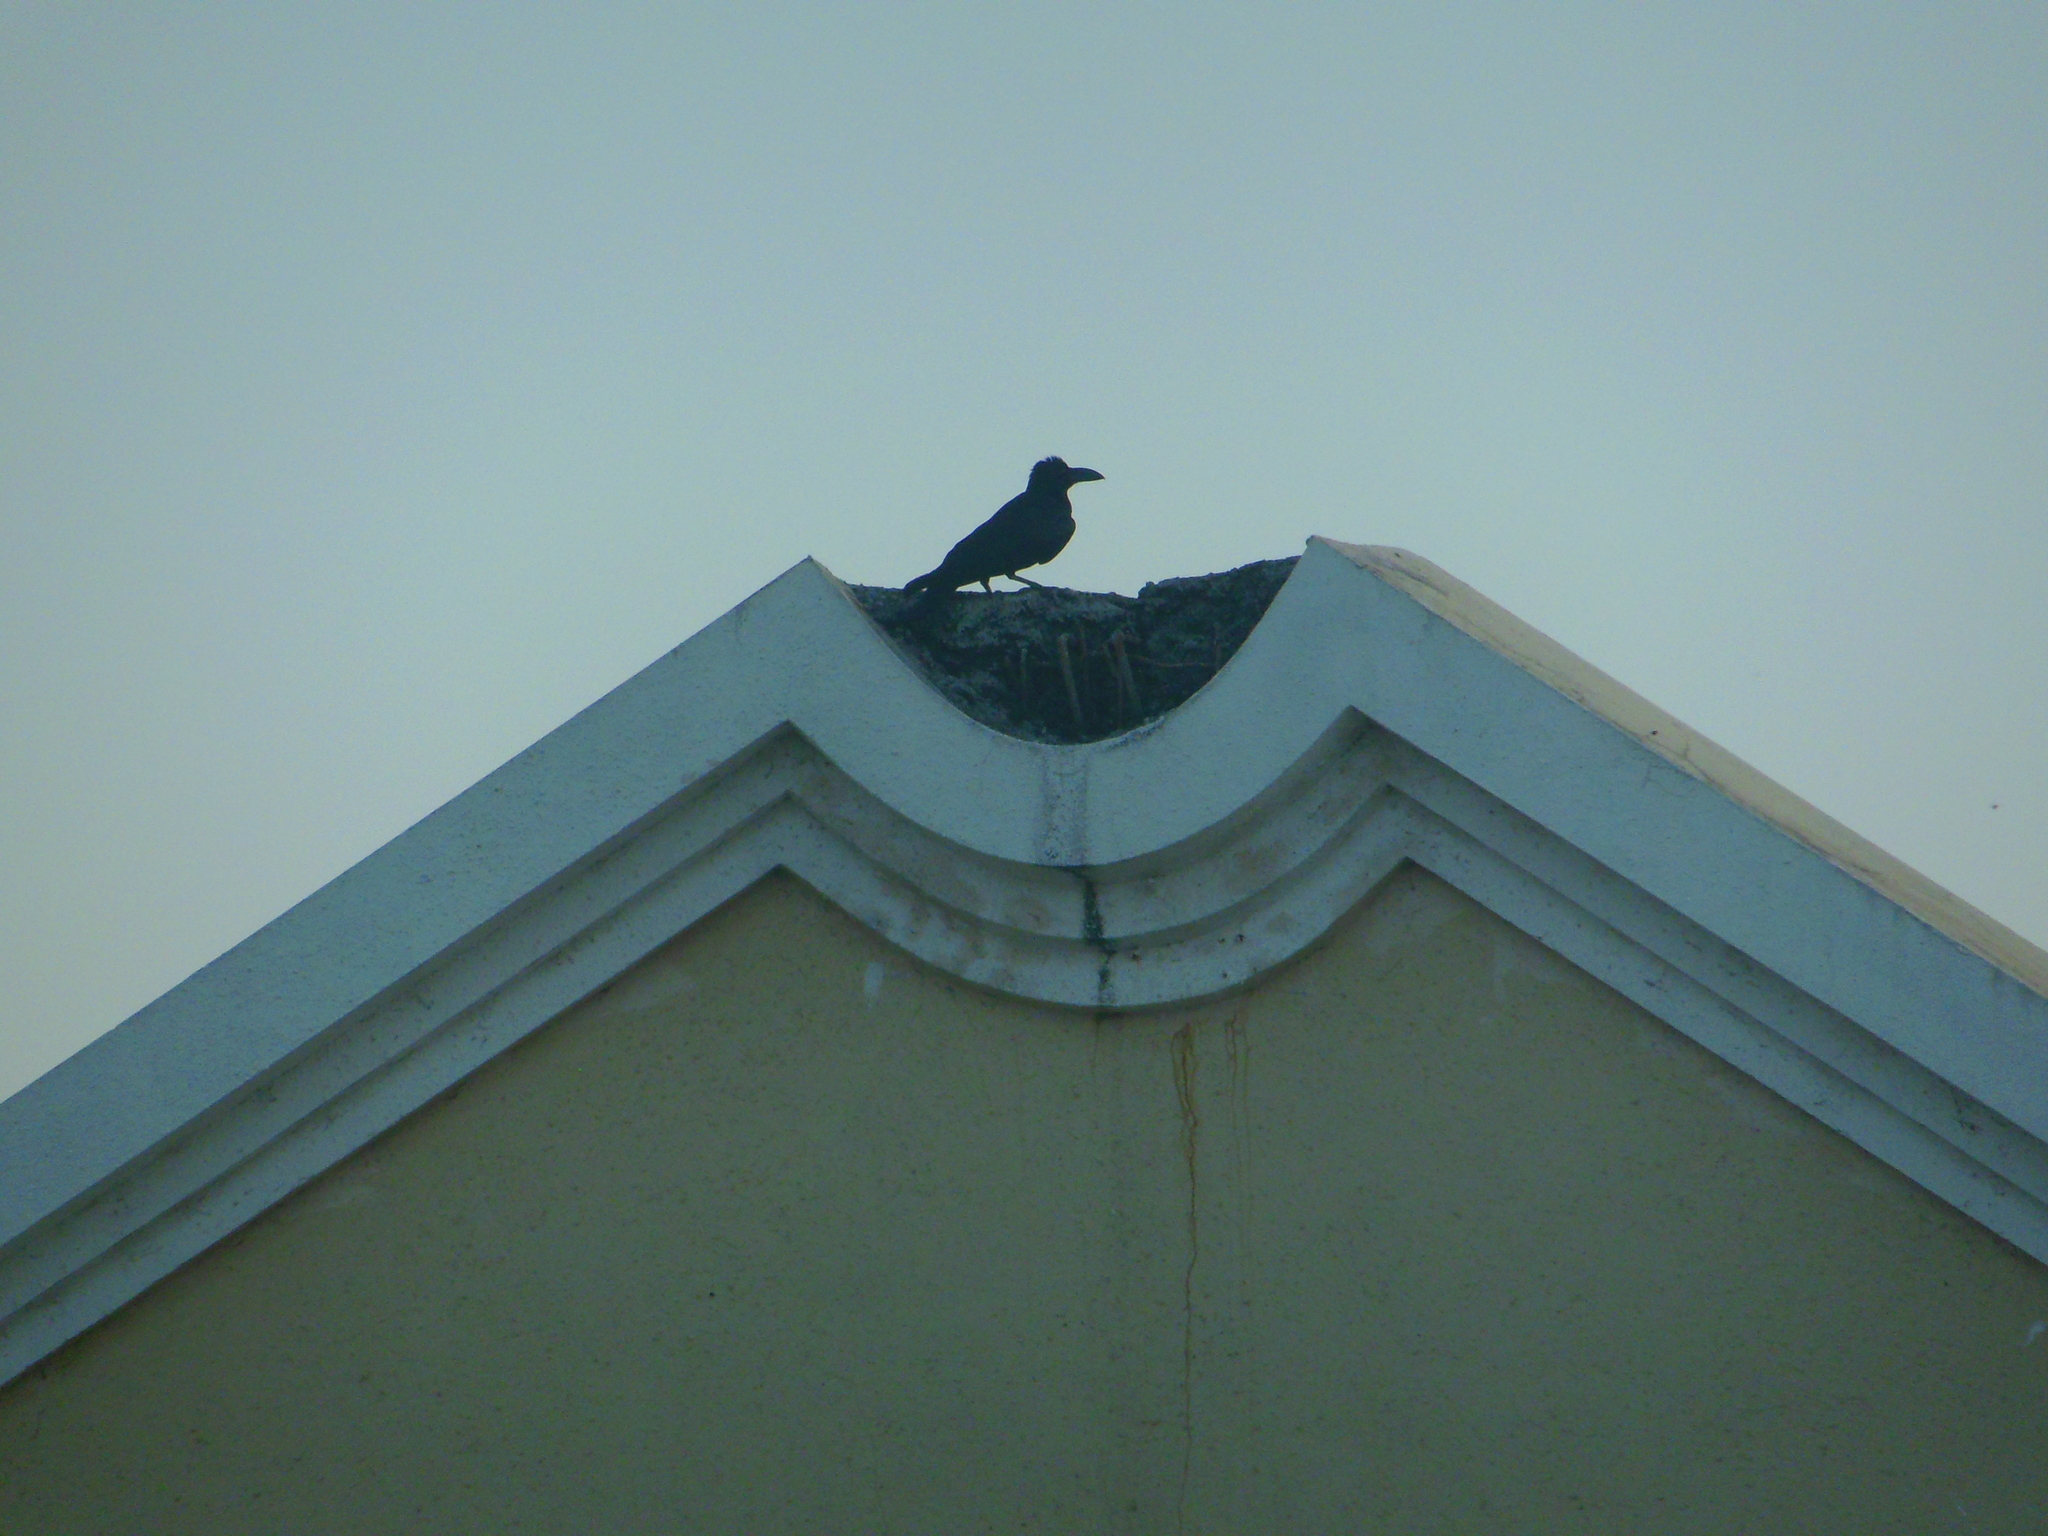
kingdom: Animalia
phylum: Chordata
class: Aves
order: Passeriformes
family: Corvidae
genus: Corvus
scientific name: Corvus macrorhynchos
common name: Large-billed crow
